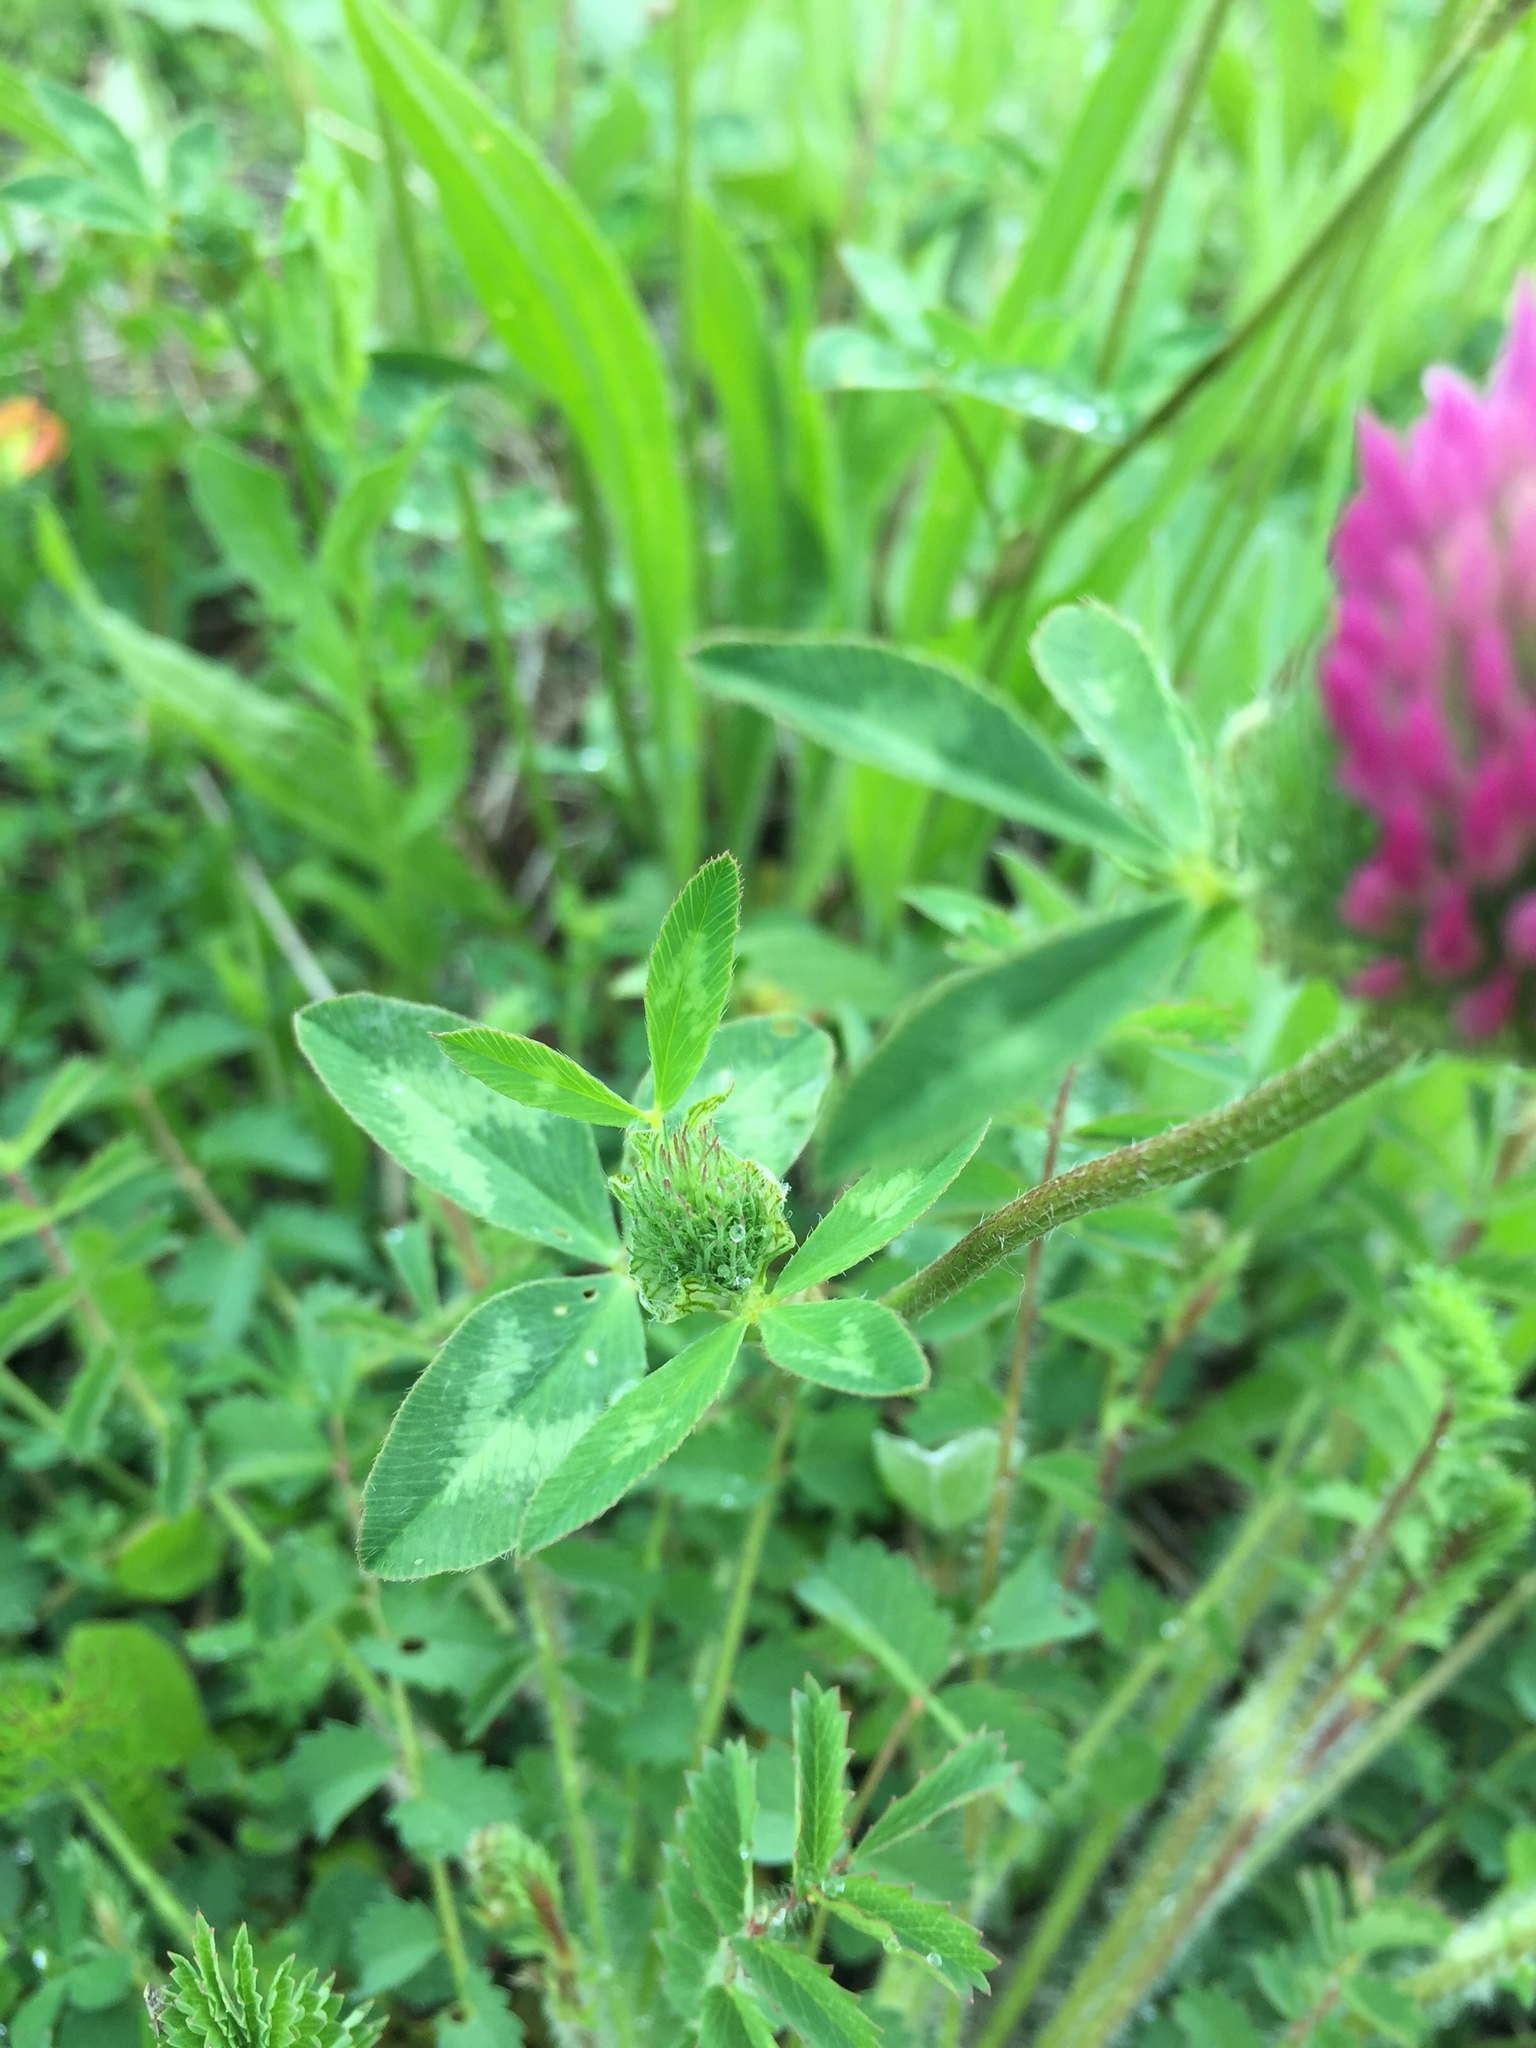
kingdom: Plantae
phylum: Tracheophyta
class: Magnoliopsida
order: Fabales
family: Fabaceae
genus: Trifolium
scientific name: Trifolium pratense
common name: Red clover
